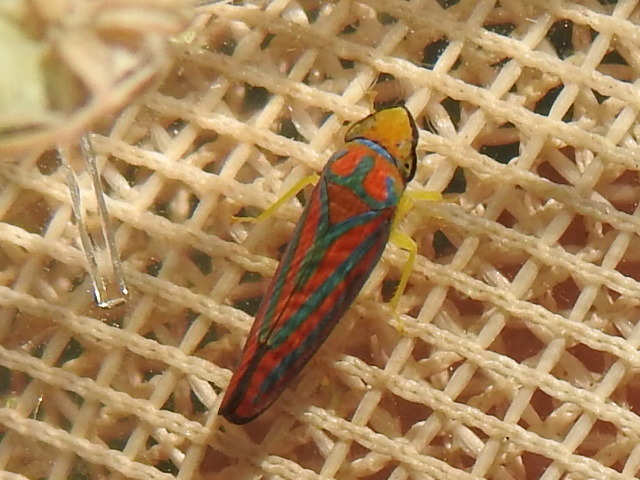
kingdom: Animalia
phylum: Arthropoda
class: Insecta
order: Hemiptera
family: Cicadellidae
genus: Graphocephala
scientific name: Graphocephala coccinea
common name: Candy-striped leafhopper
